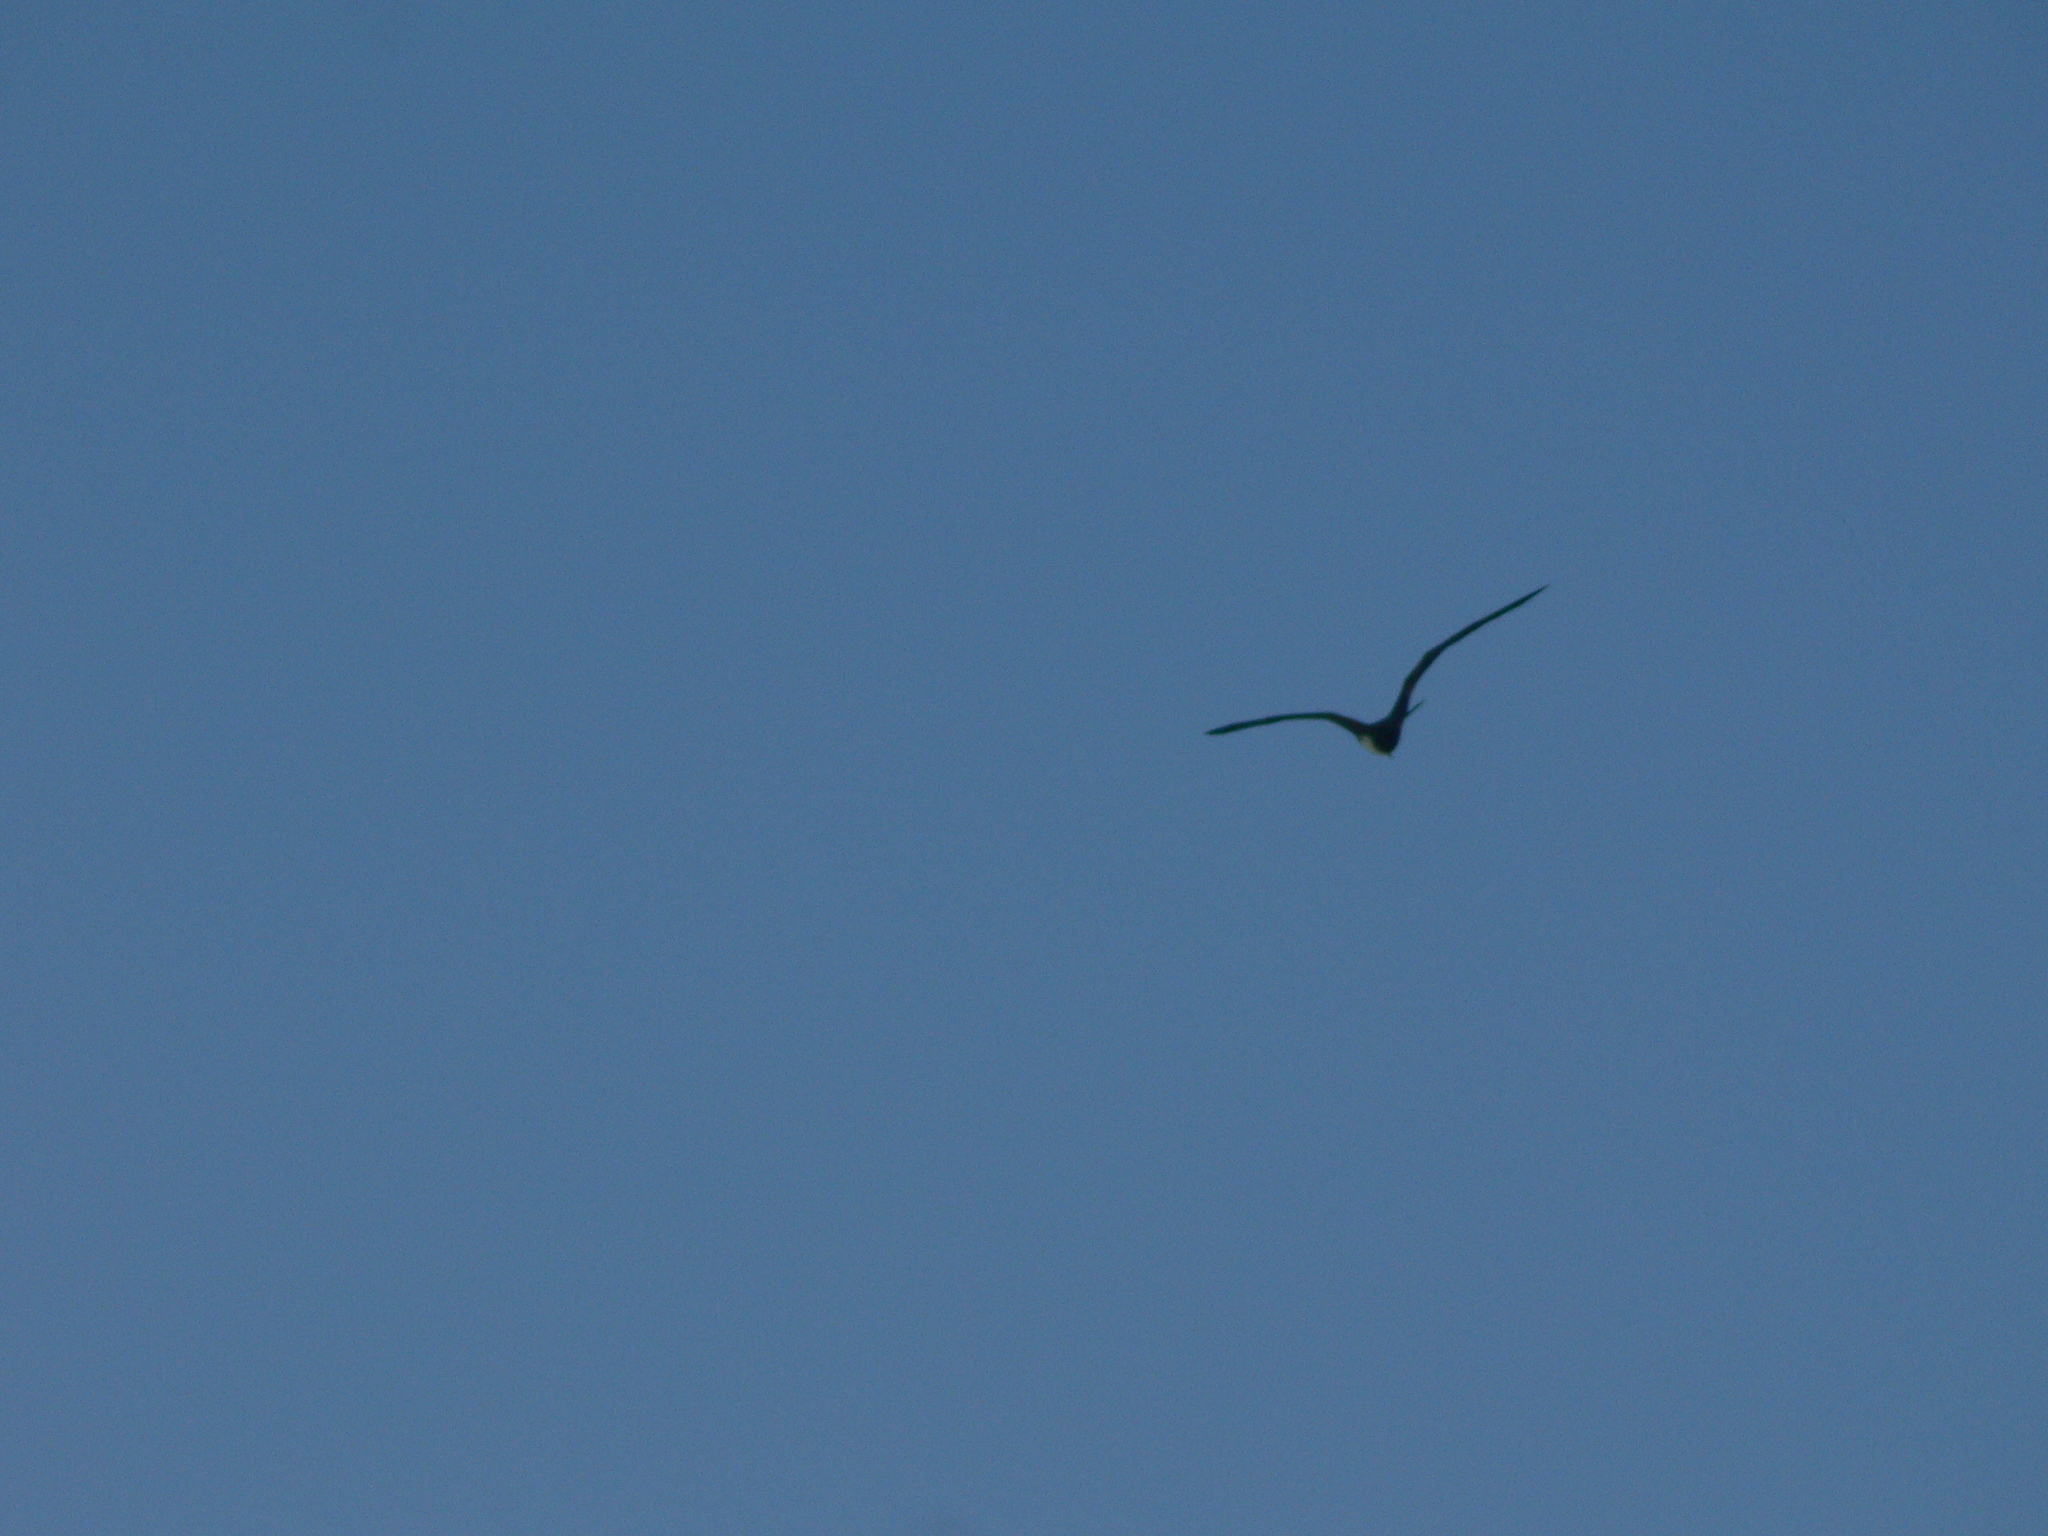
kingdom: Animalia
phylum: Chordata
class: Aves
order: Suliformes
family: Fregatidae
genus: Fregata
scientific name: Fregata minor
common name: Great frigatebird
